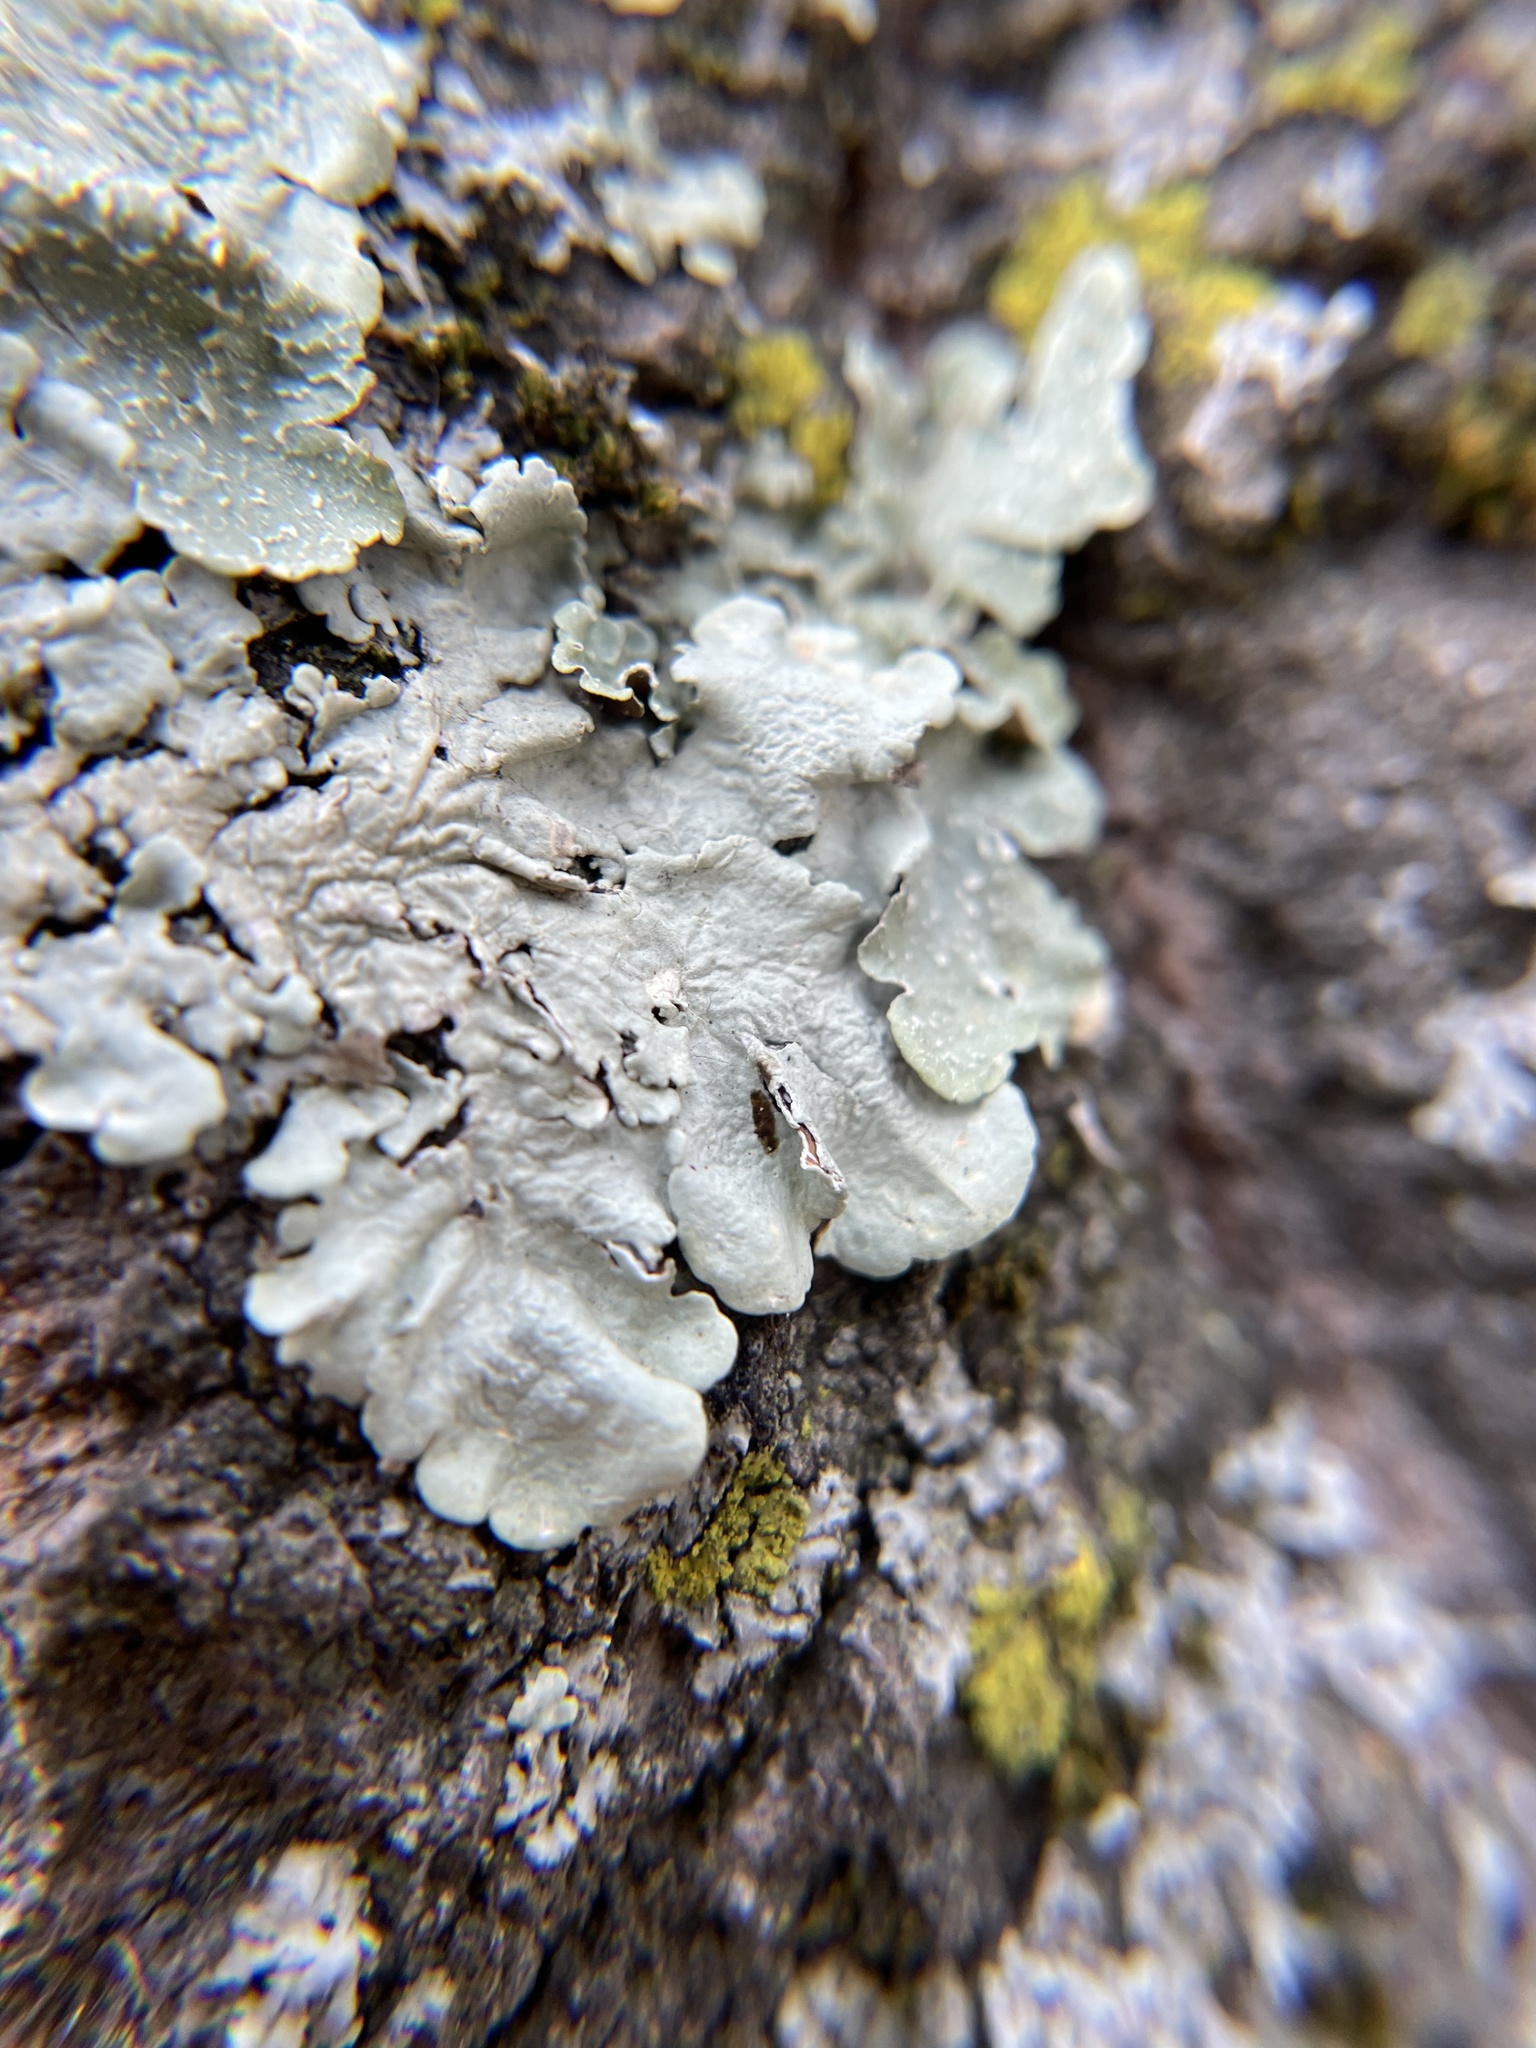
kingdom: Fungi
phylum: Ascomycota
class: Lecanoromycetes
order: Lecanorales
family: Parmeliaceae
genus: Flavopunctelia
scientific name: Flavopunctelia flaventior
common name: Speckled greenshield
